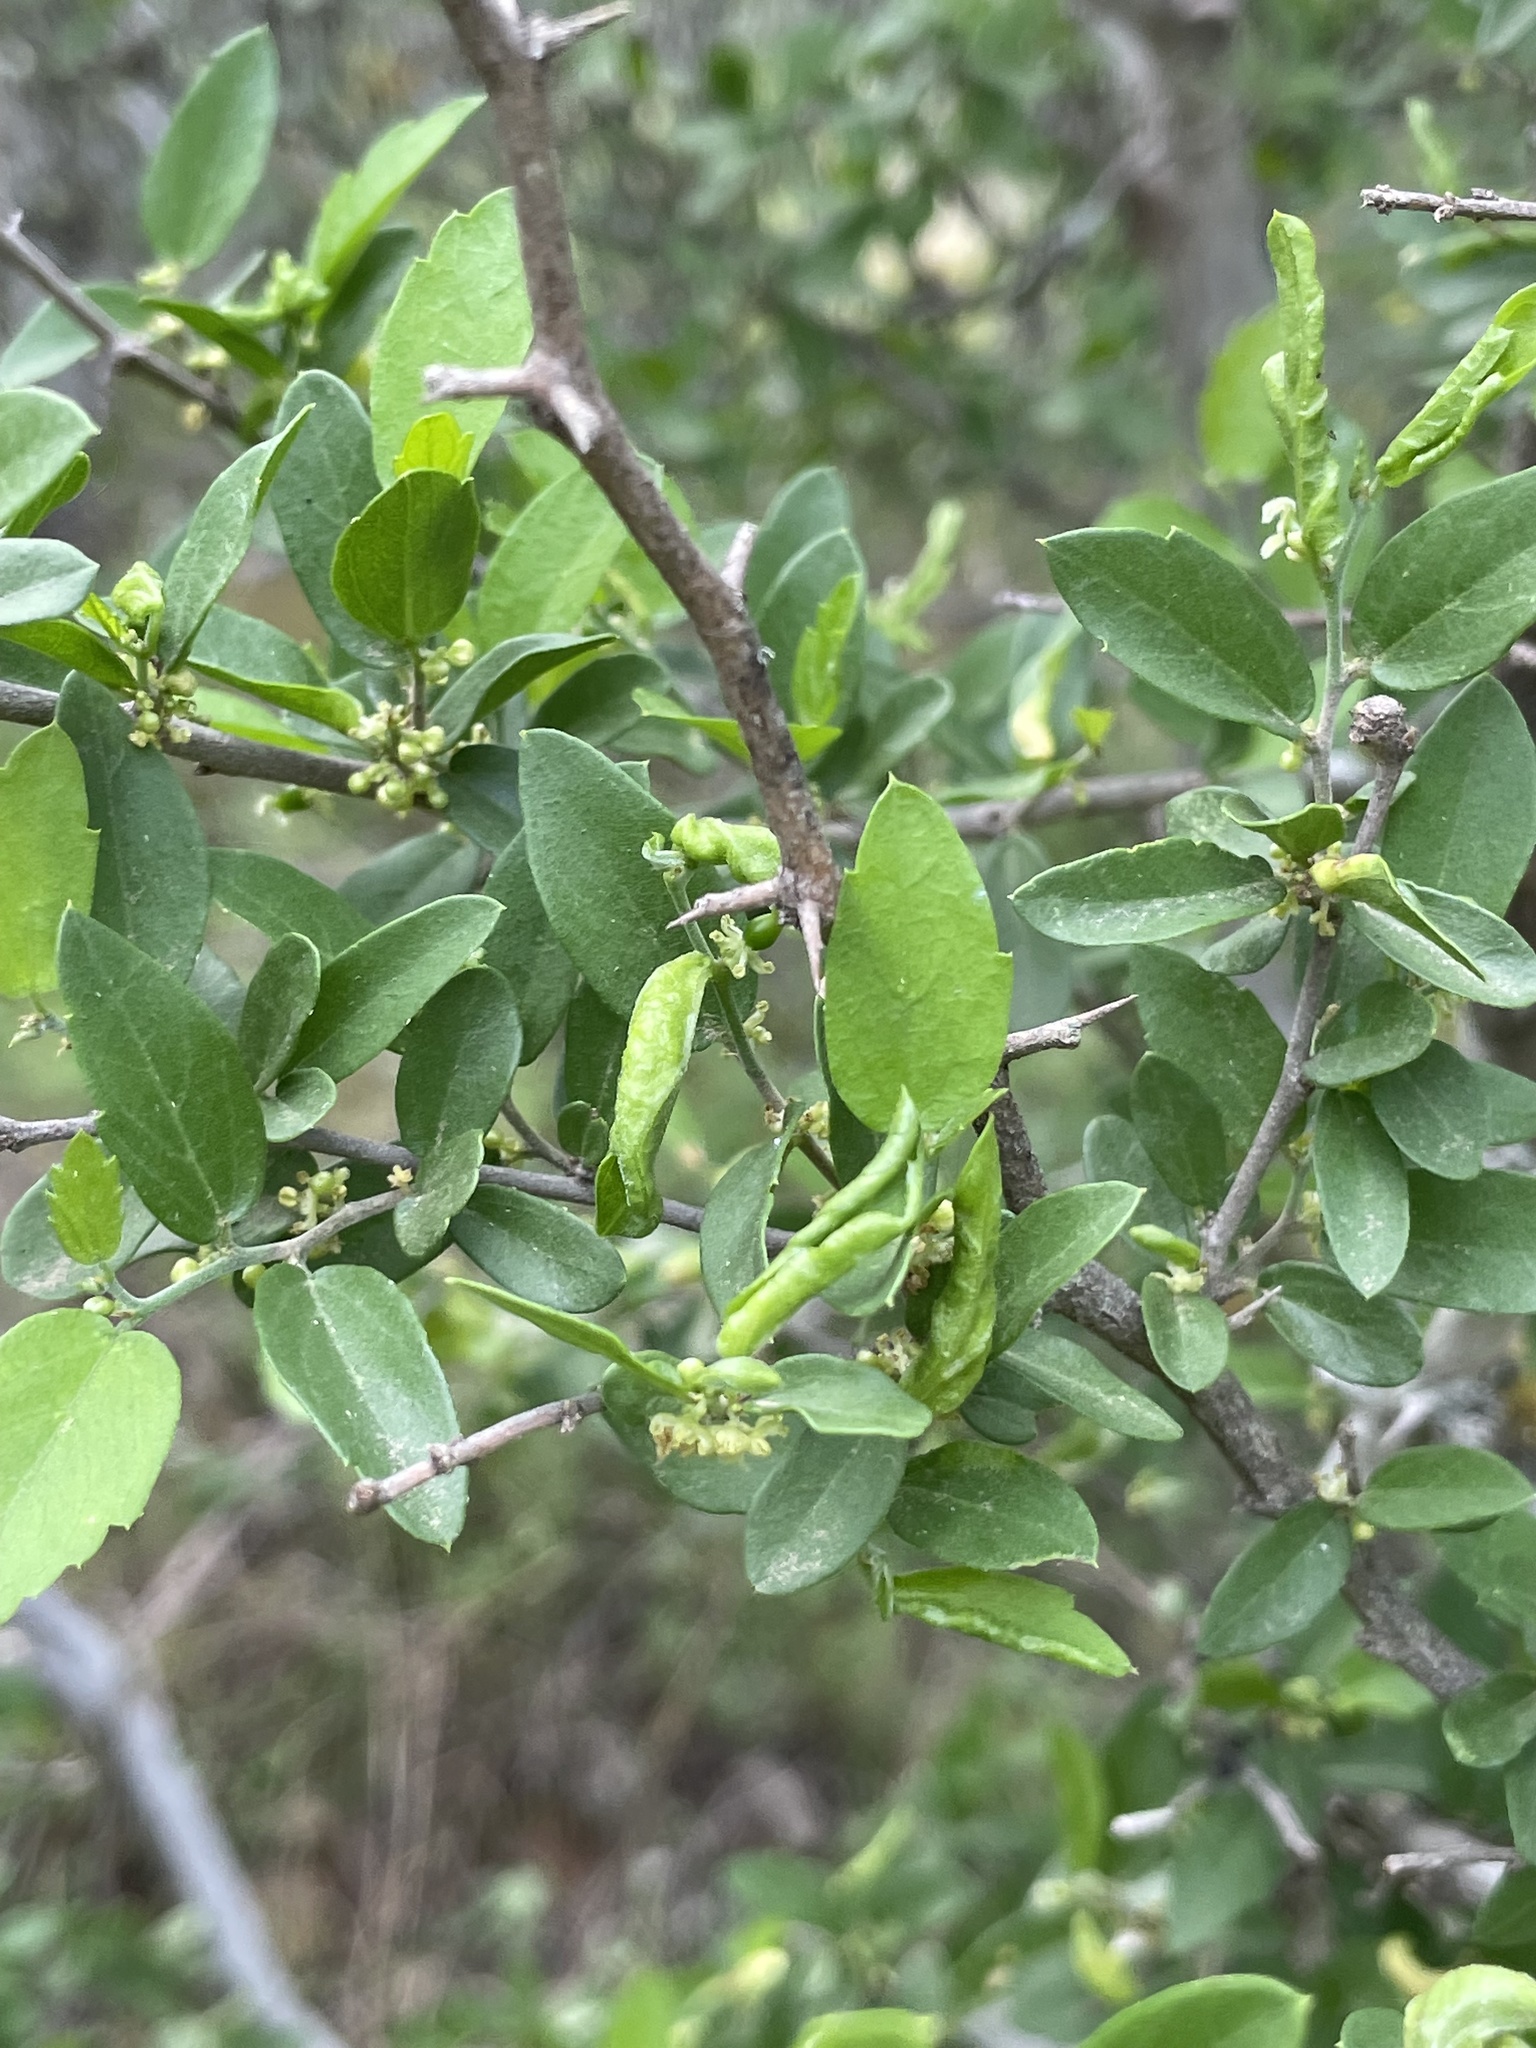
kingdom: Plantae
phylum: Tracheophyta
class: Magnoliopsida
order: Rosales
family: Cannabaceae
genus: Celtis
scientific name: Celtis pallida
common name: Desert hackberry
